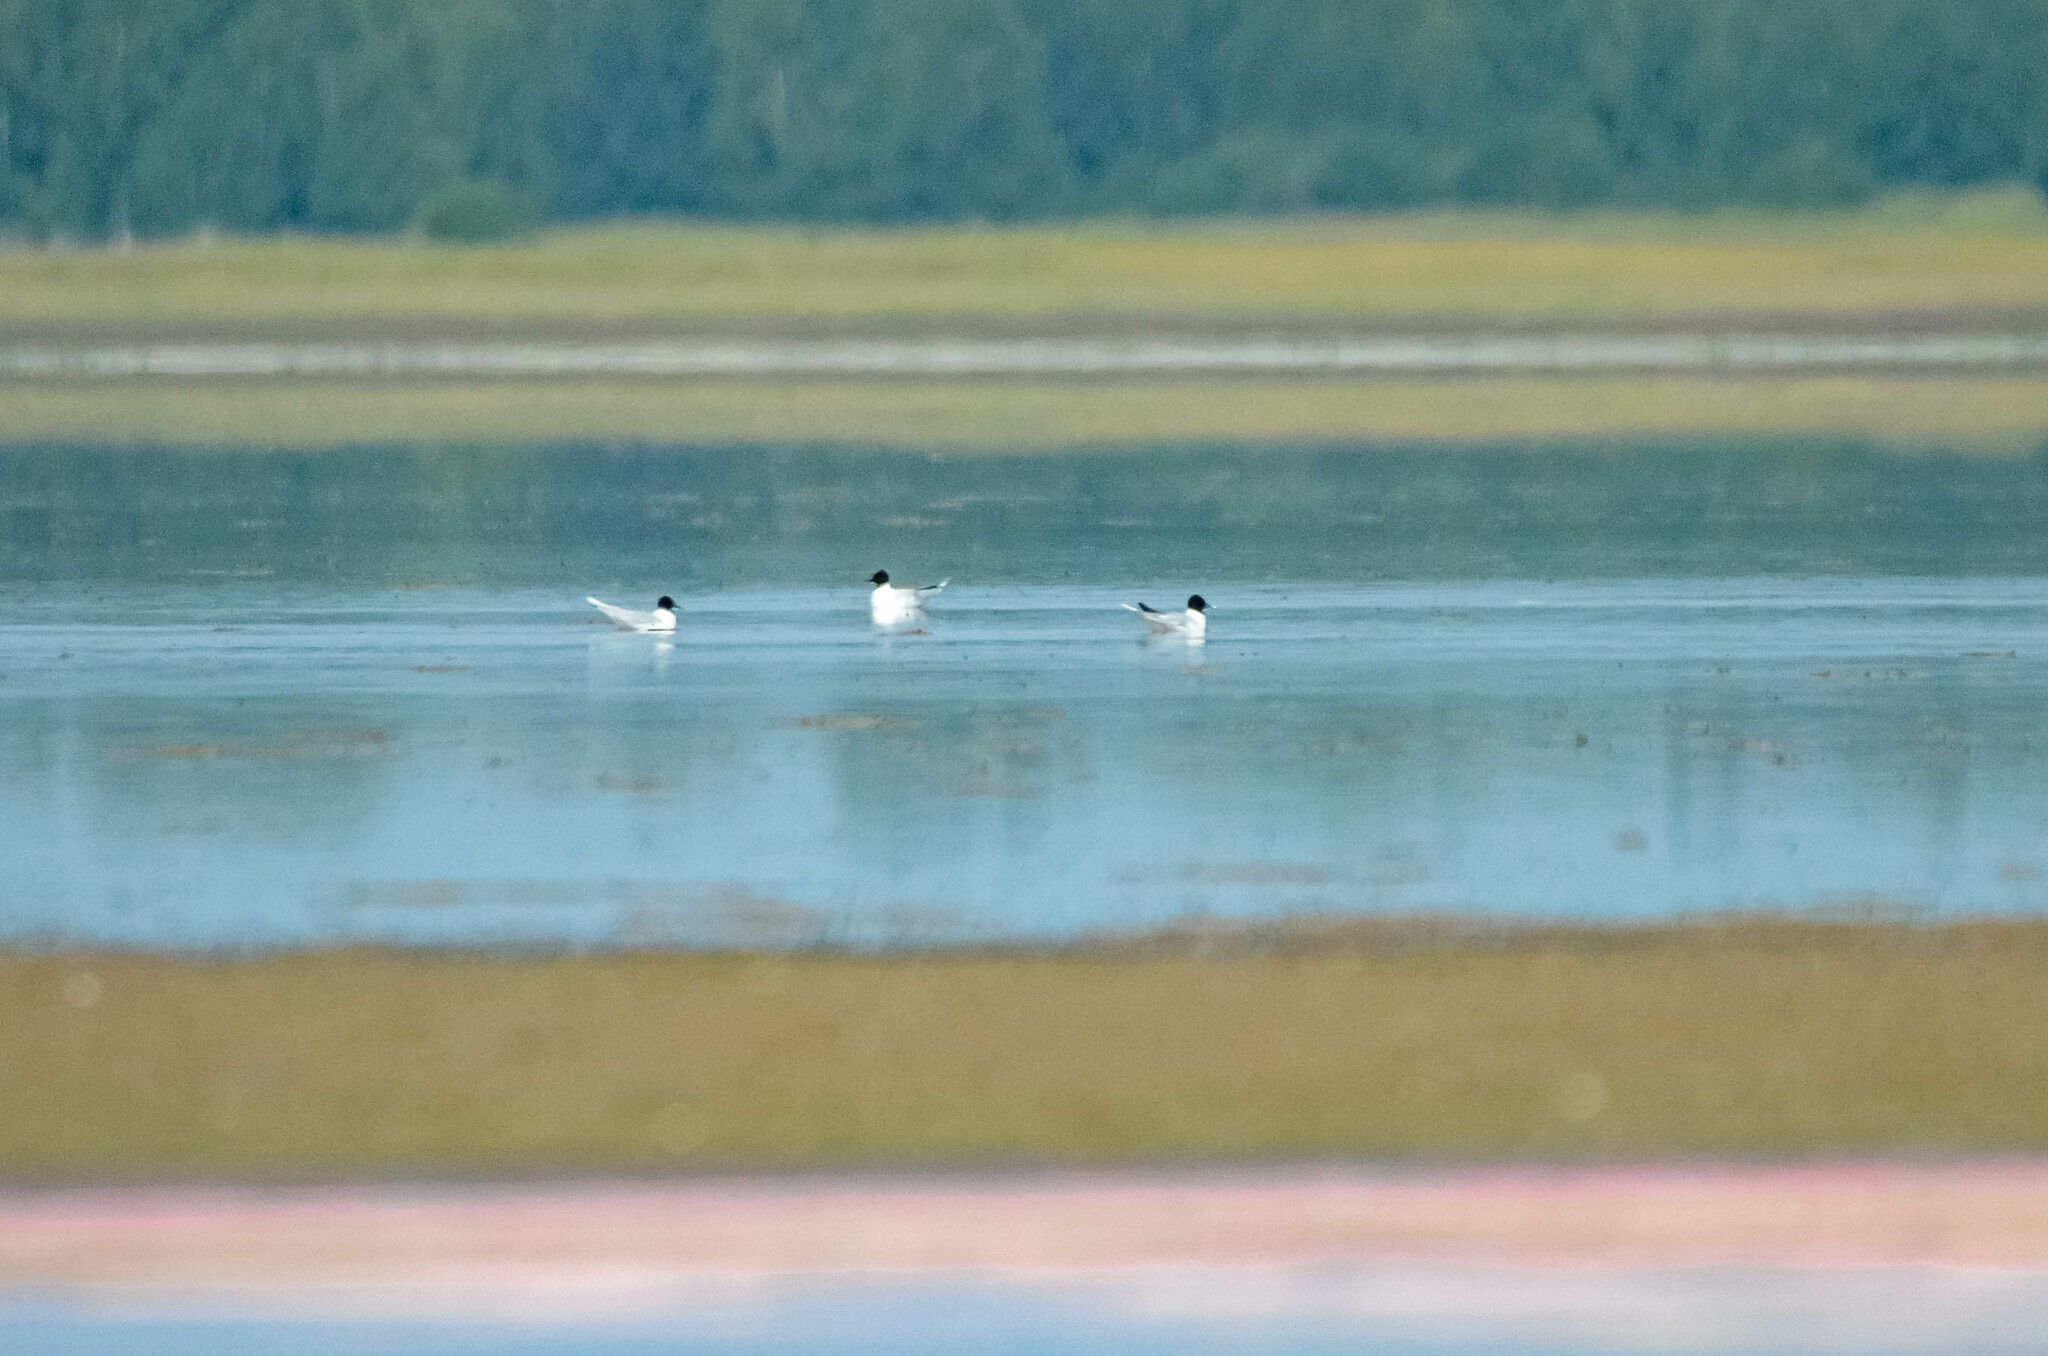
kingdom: Animalia
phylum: Chordata
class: Aves
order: Charadriiformes
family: Laridae
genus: Hydrocoloeus
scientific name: Hydrocoloeus minutus
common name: Little gull
